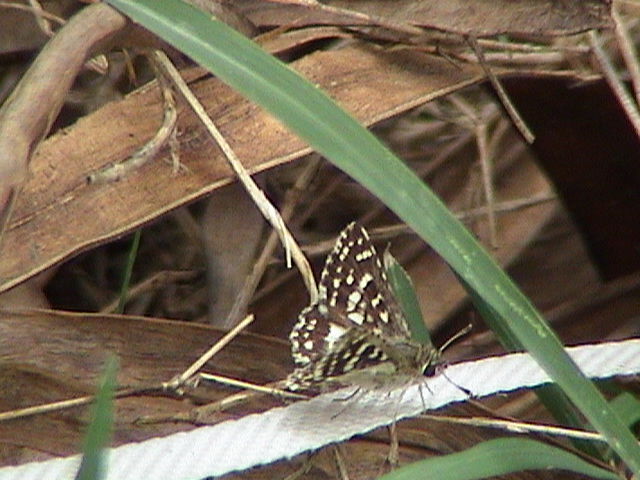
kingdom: Animalia
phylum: Arthropoda
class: Insecta
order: Lepidoptera
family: Hesperiidae
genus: Spialia
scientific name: Spialia galba
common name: Indian skipper
